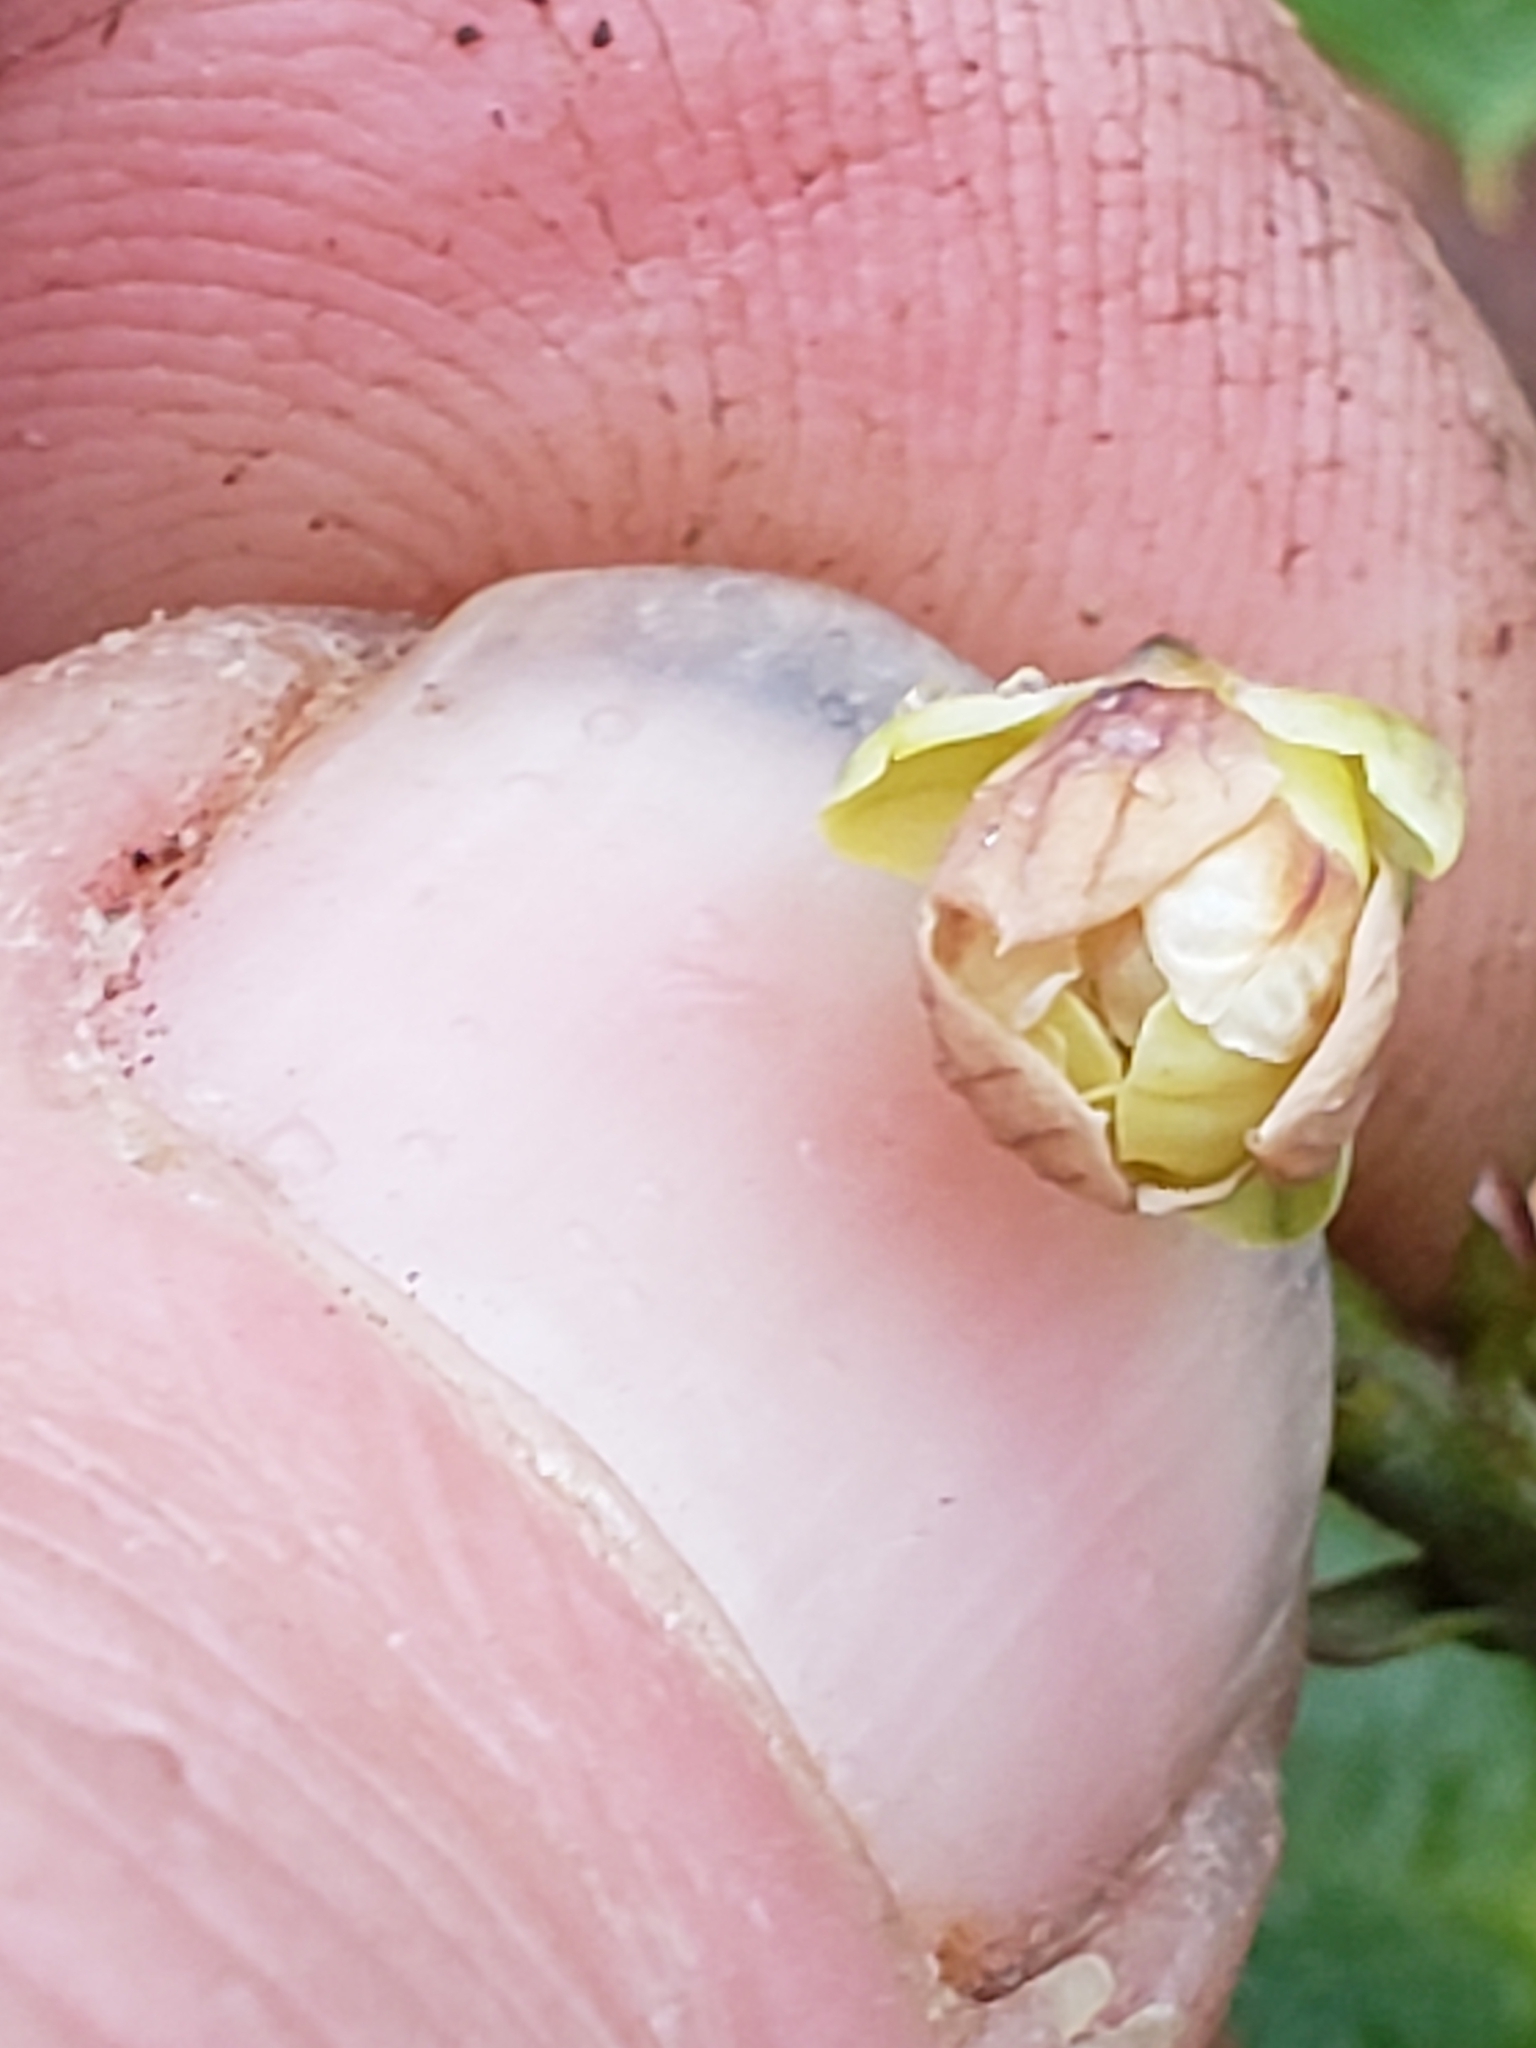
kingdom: Plantae
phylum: Tracheophyta
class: Magnoliopsida
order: Ranunculales
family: Berberidaceae
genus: Mahonia
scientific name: Mahonia bealei
